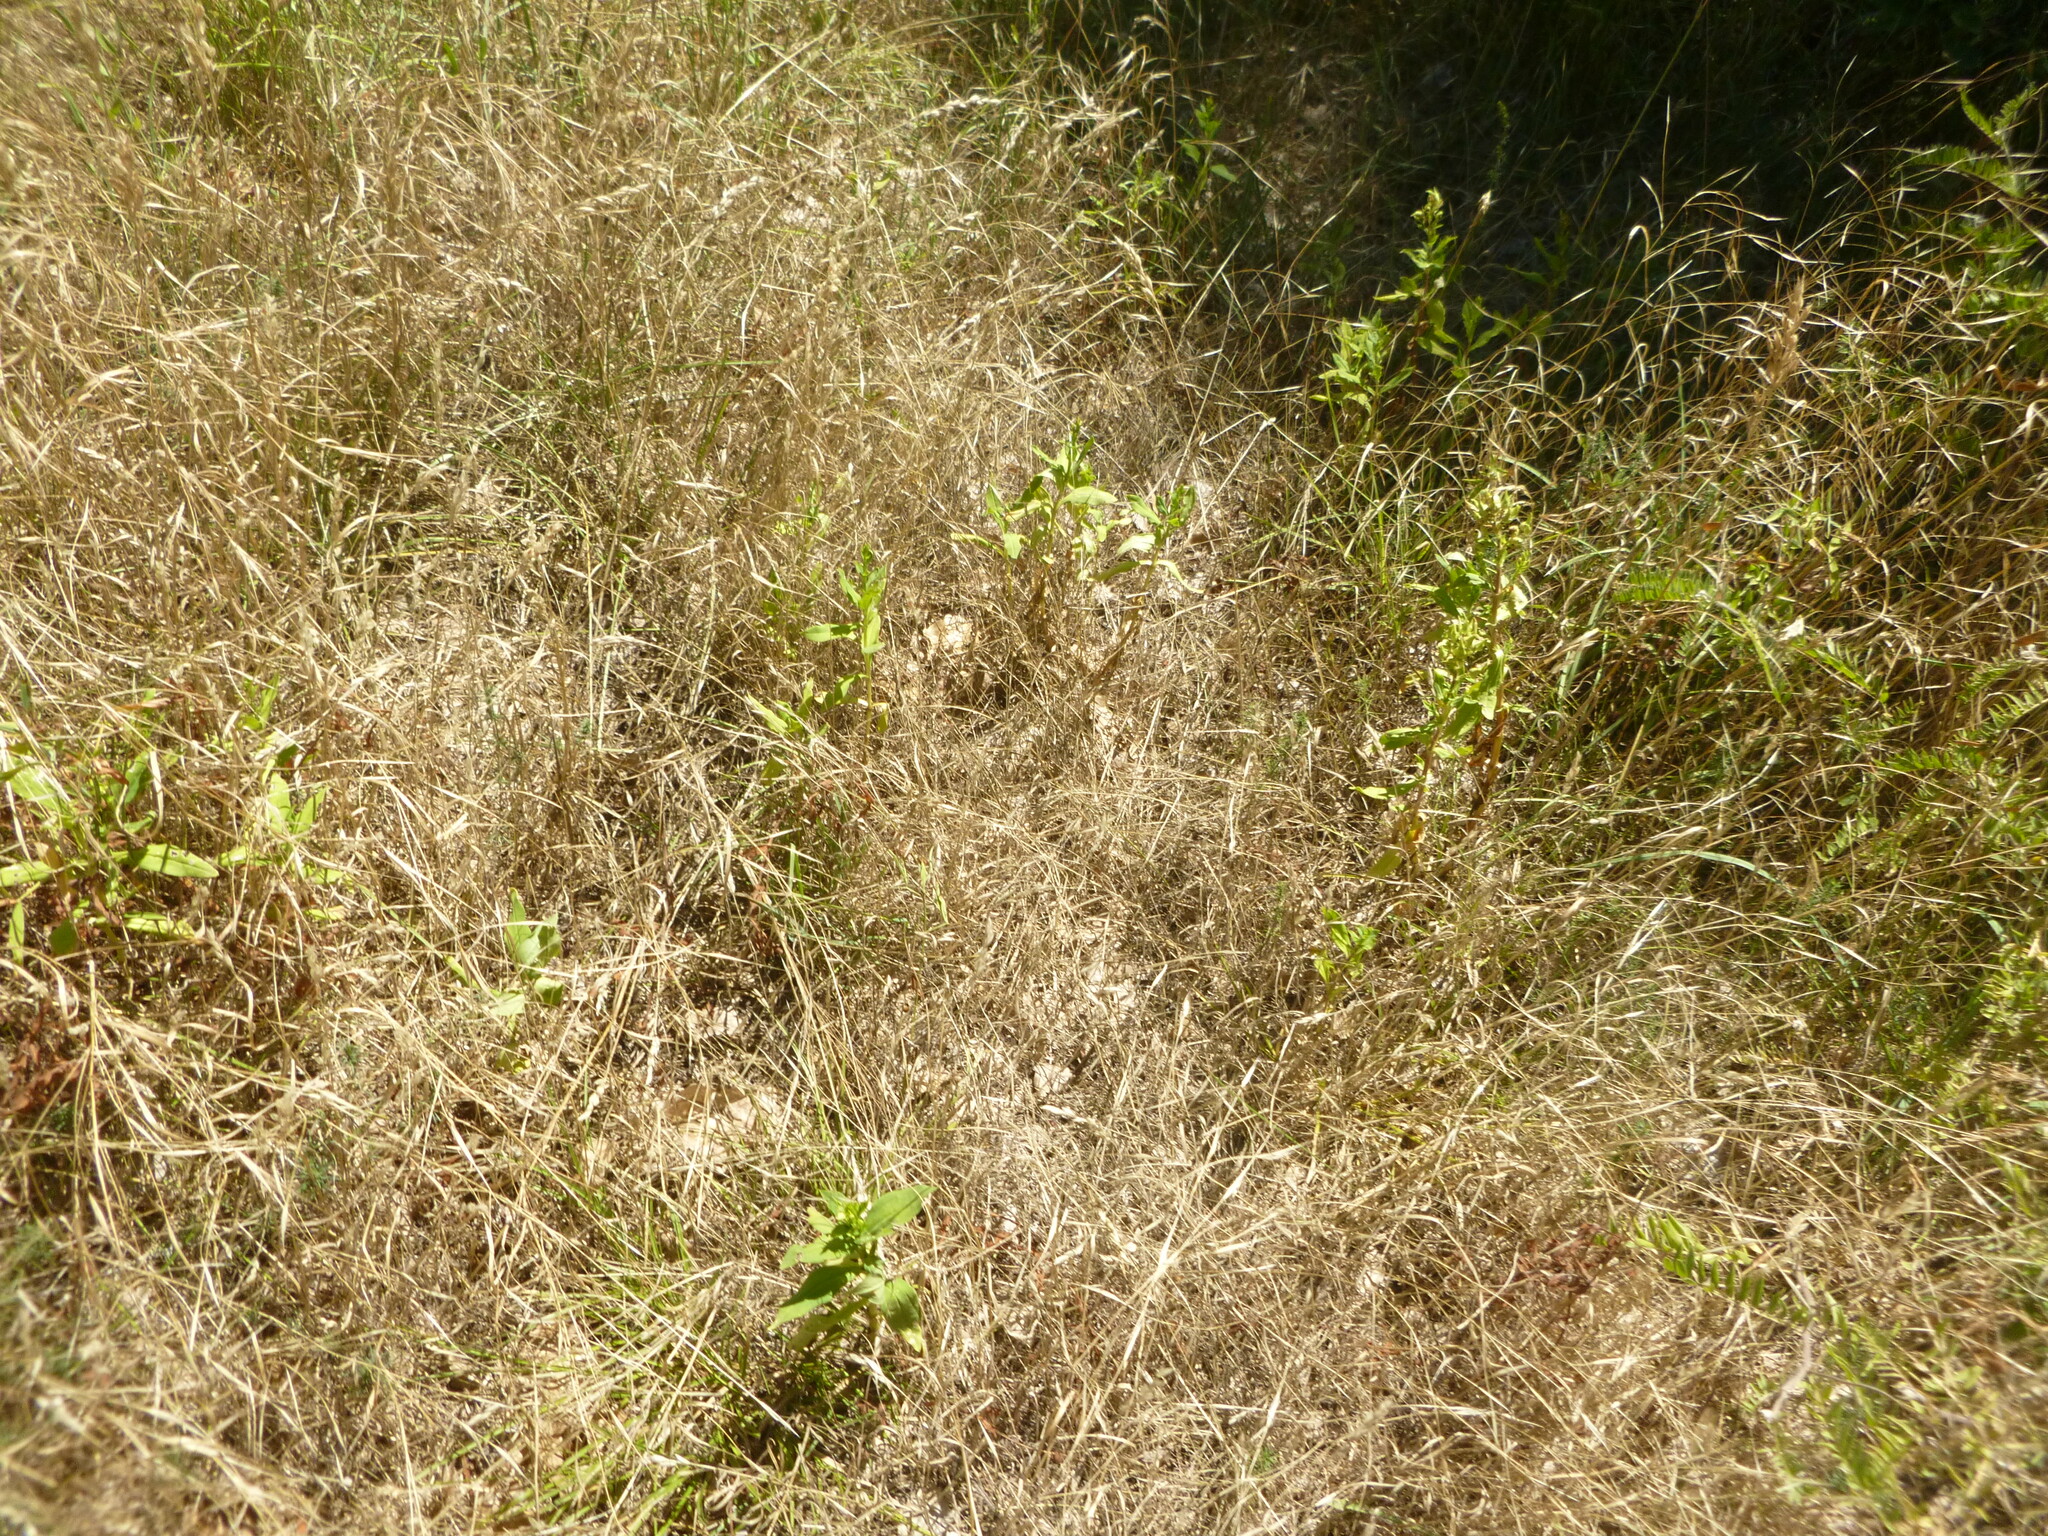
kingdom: Plantae
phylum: Tracheophyta
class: Magnoliopsida
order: Caryophyllales
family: Caryophyllaceae
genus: Saponaria
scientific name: Saponaria officinalis
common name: Soapwort
